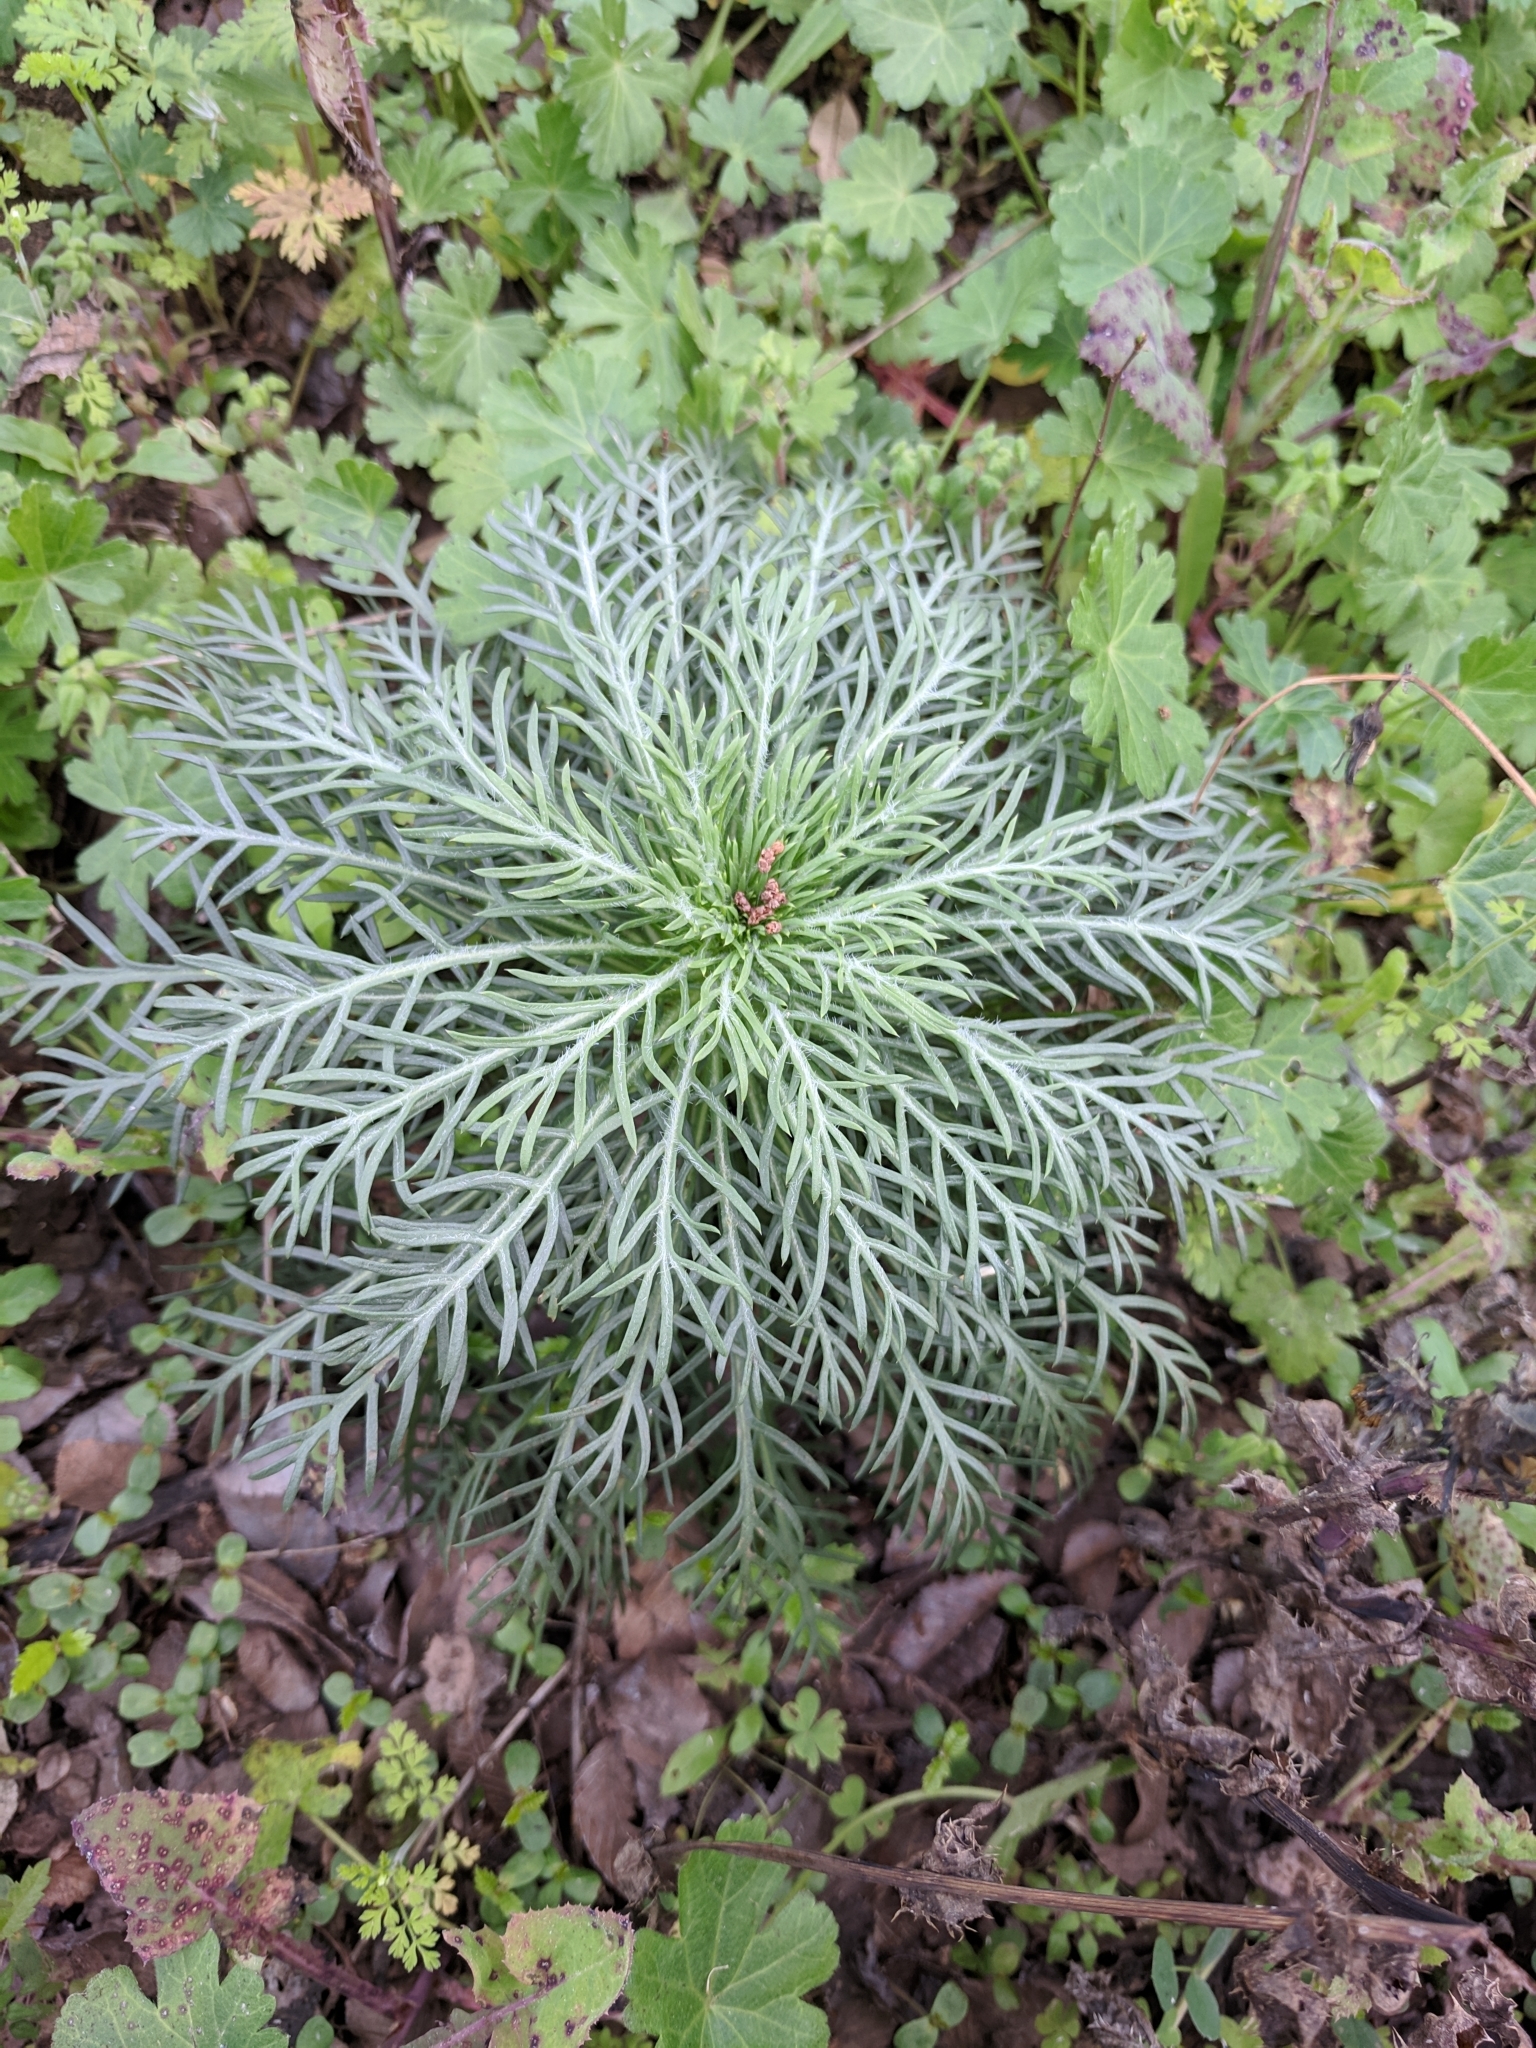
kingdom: Plantae
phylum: Tracheophyta
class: Magnoliopsida
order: Ericales
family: Polemoniaceae
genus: Ipomopsis
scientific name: Ipomopsis rubra
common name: Skyrocket
